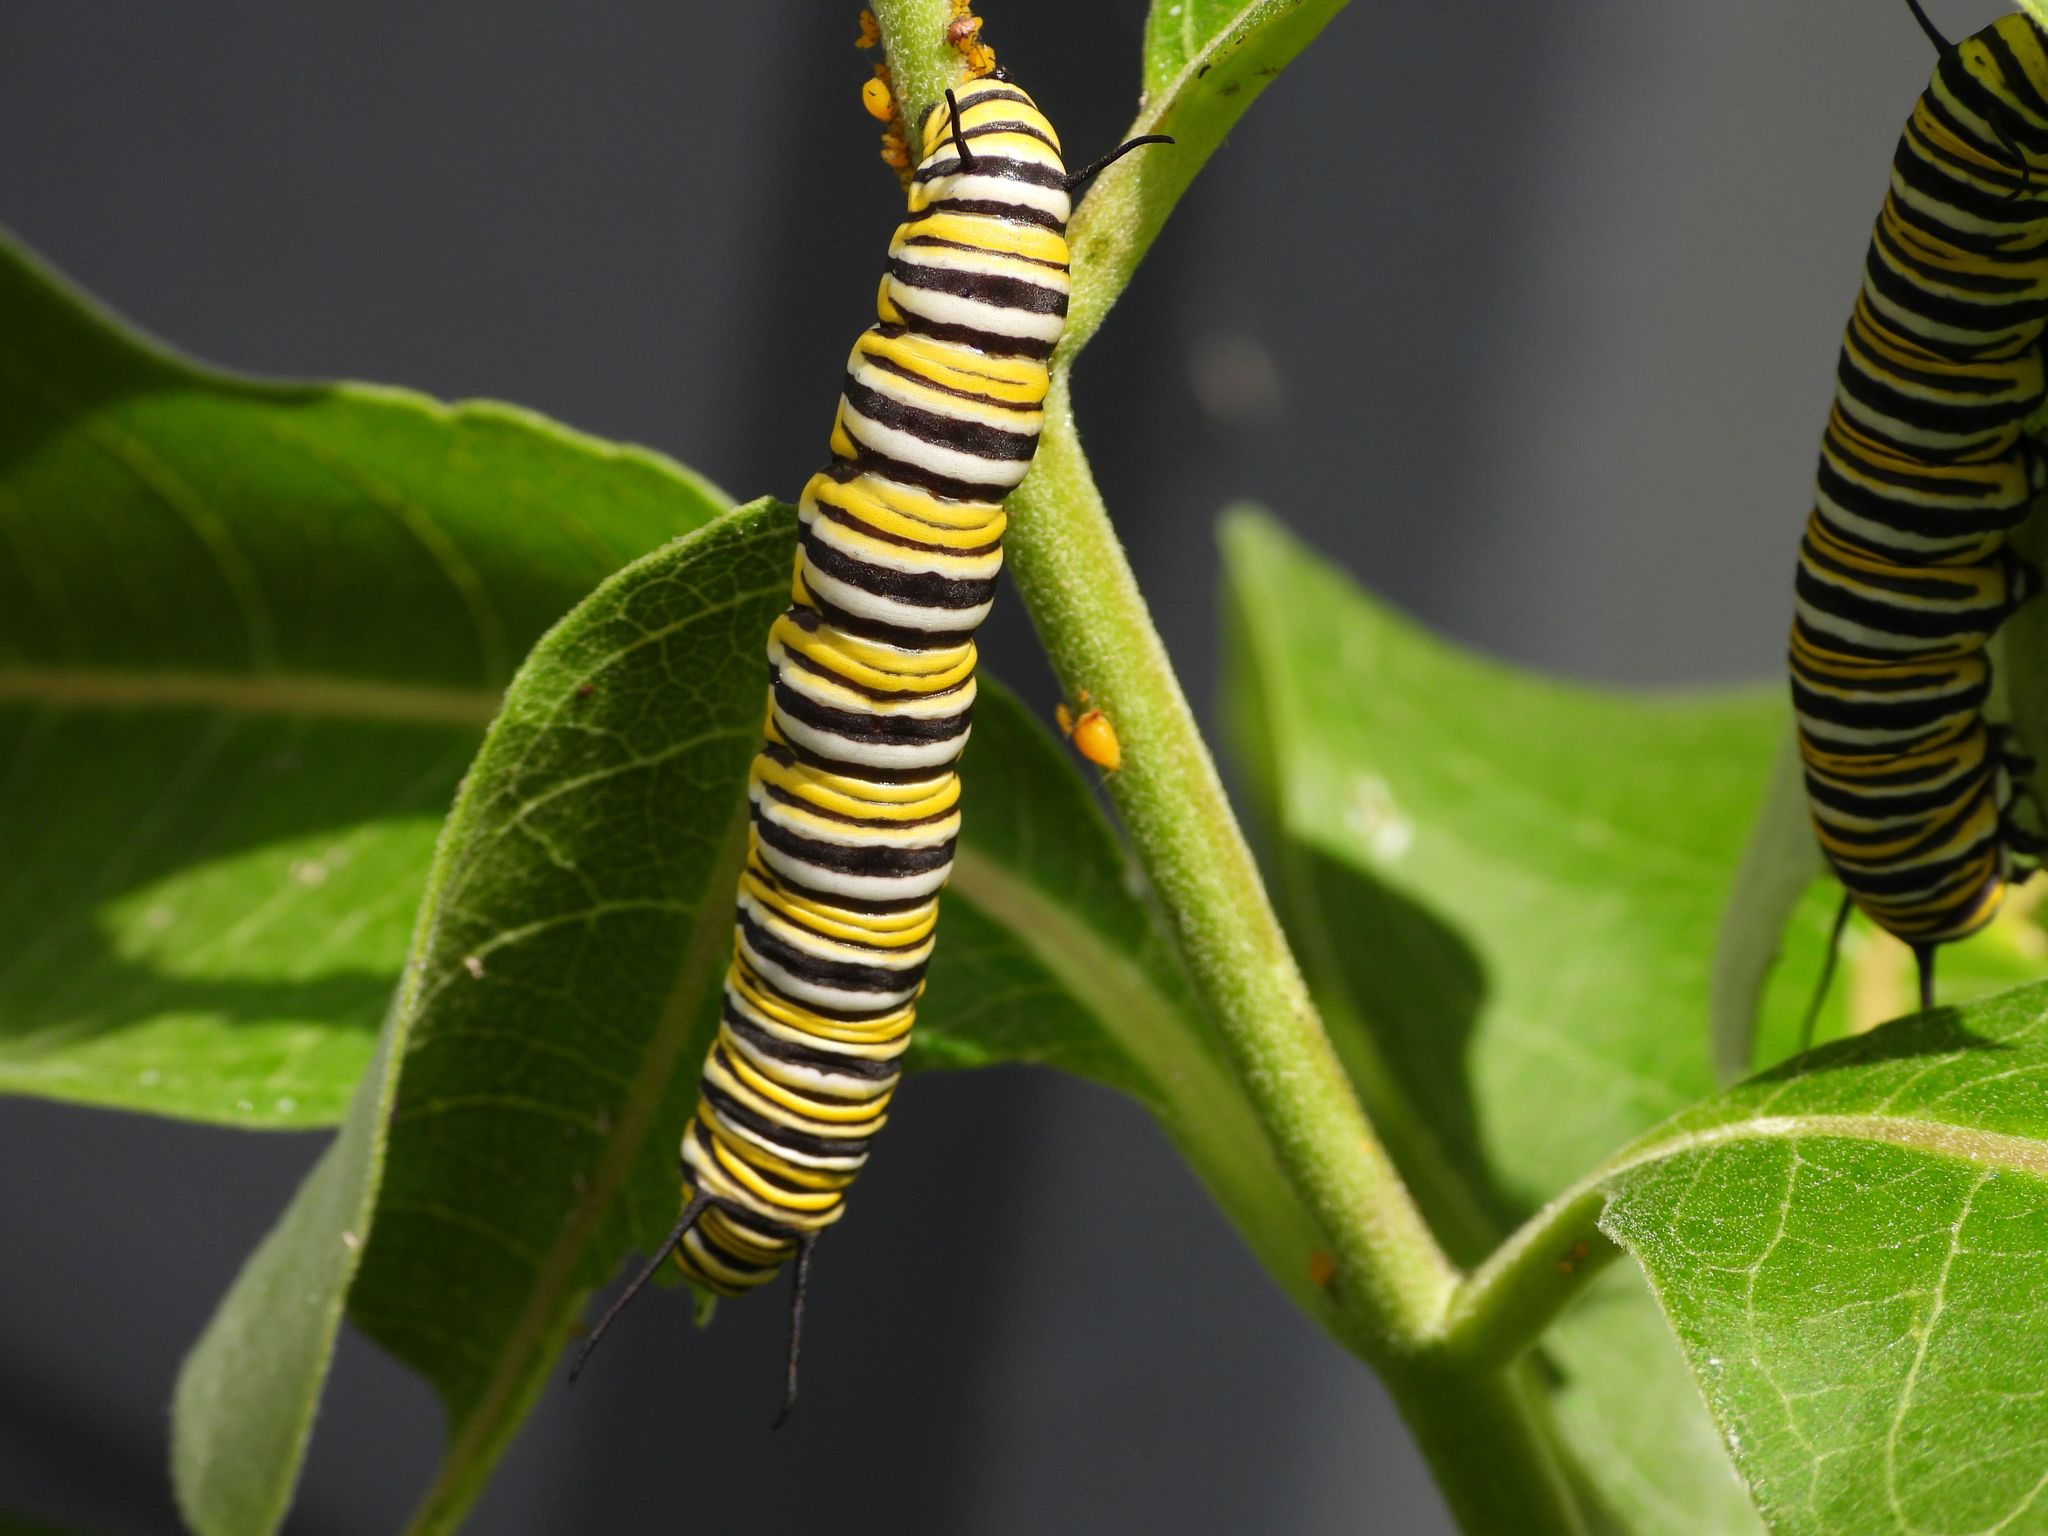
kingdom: Animalia
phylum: Arthropoda
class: Insecta
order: Lepidoptera
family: Nymphalidae
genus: Danaus
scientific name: Danaus plexippus
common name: Monarch
